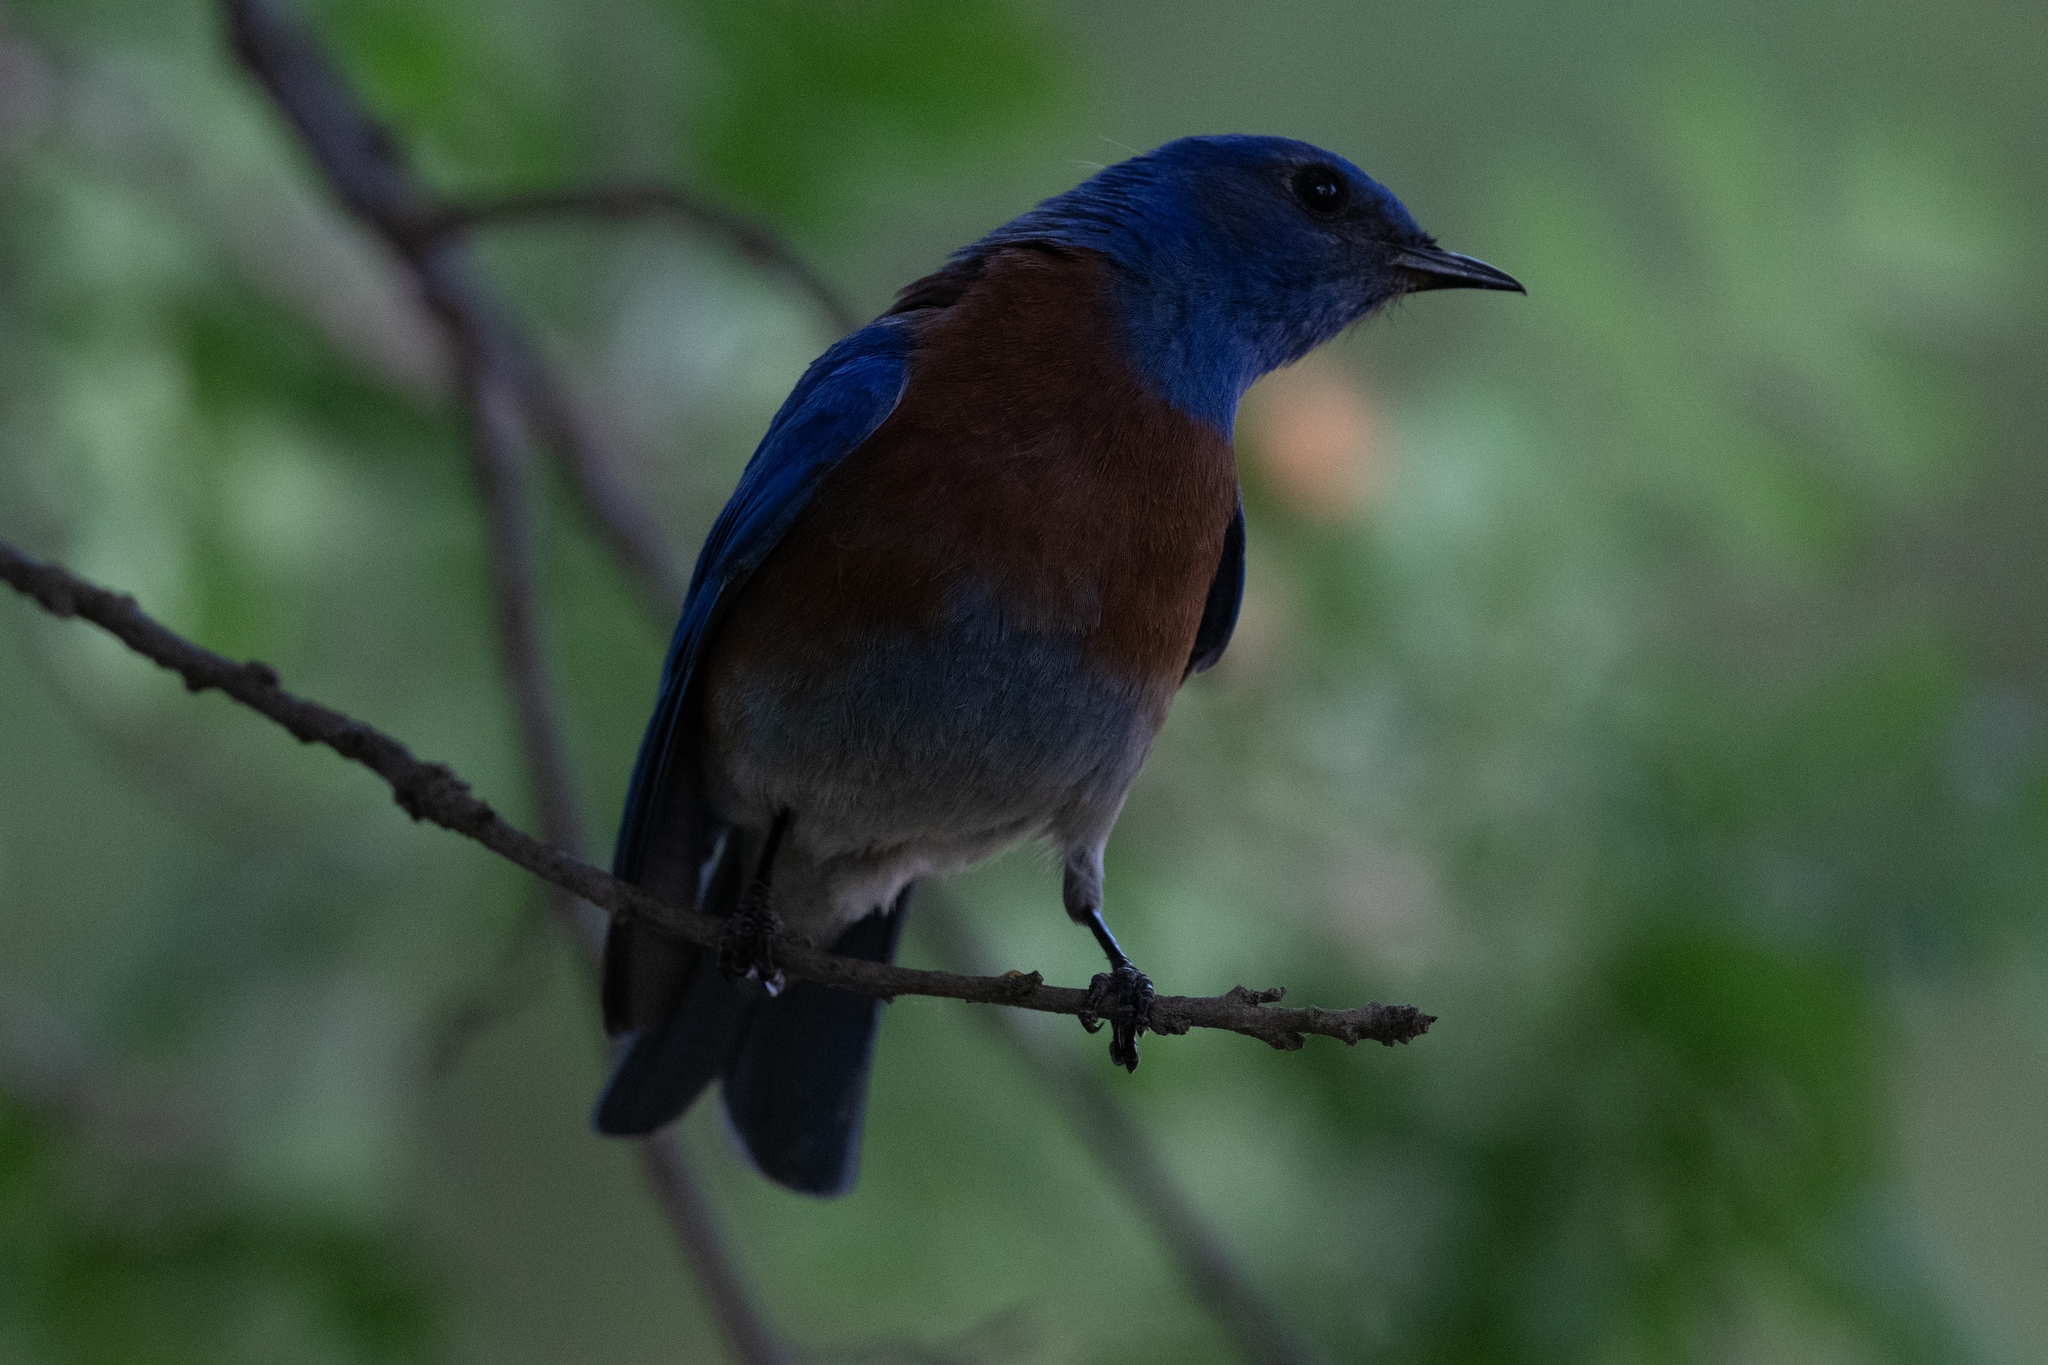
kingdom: Animalia
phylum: Chordata
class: Aves
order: Passeriformes
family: Turdidae
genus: Sialia
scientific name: Sialia mexicana
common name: Western bluebird
